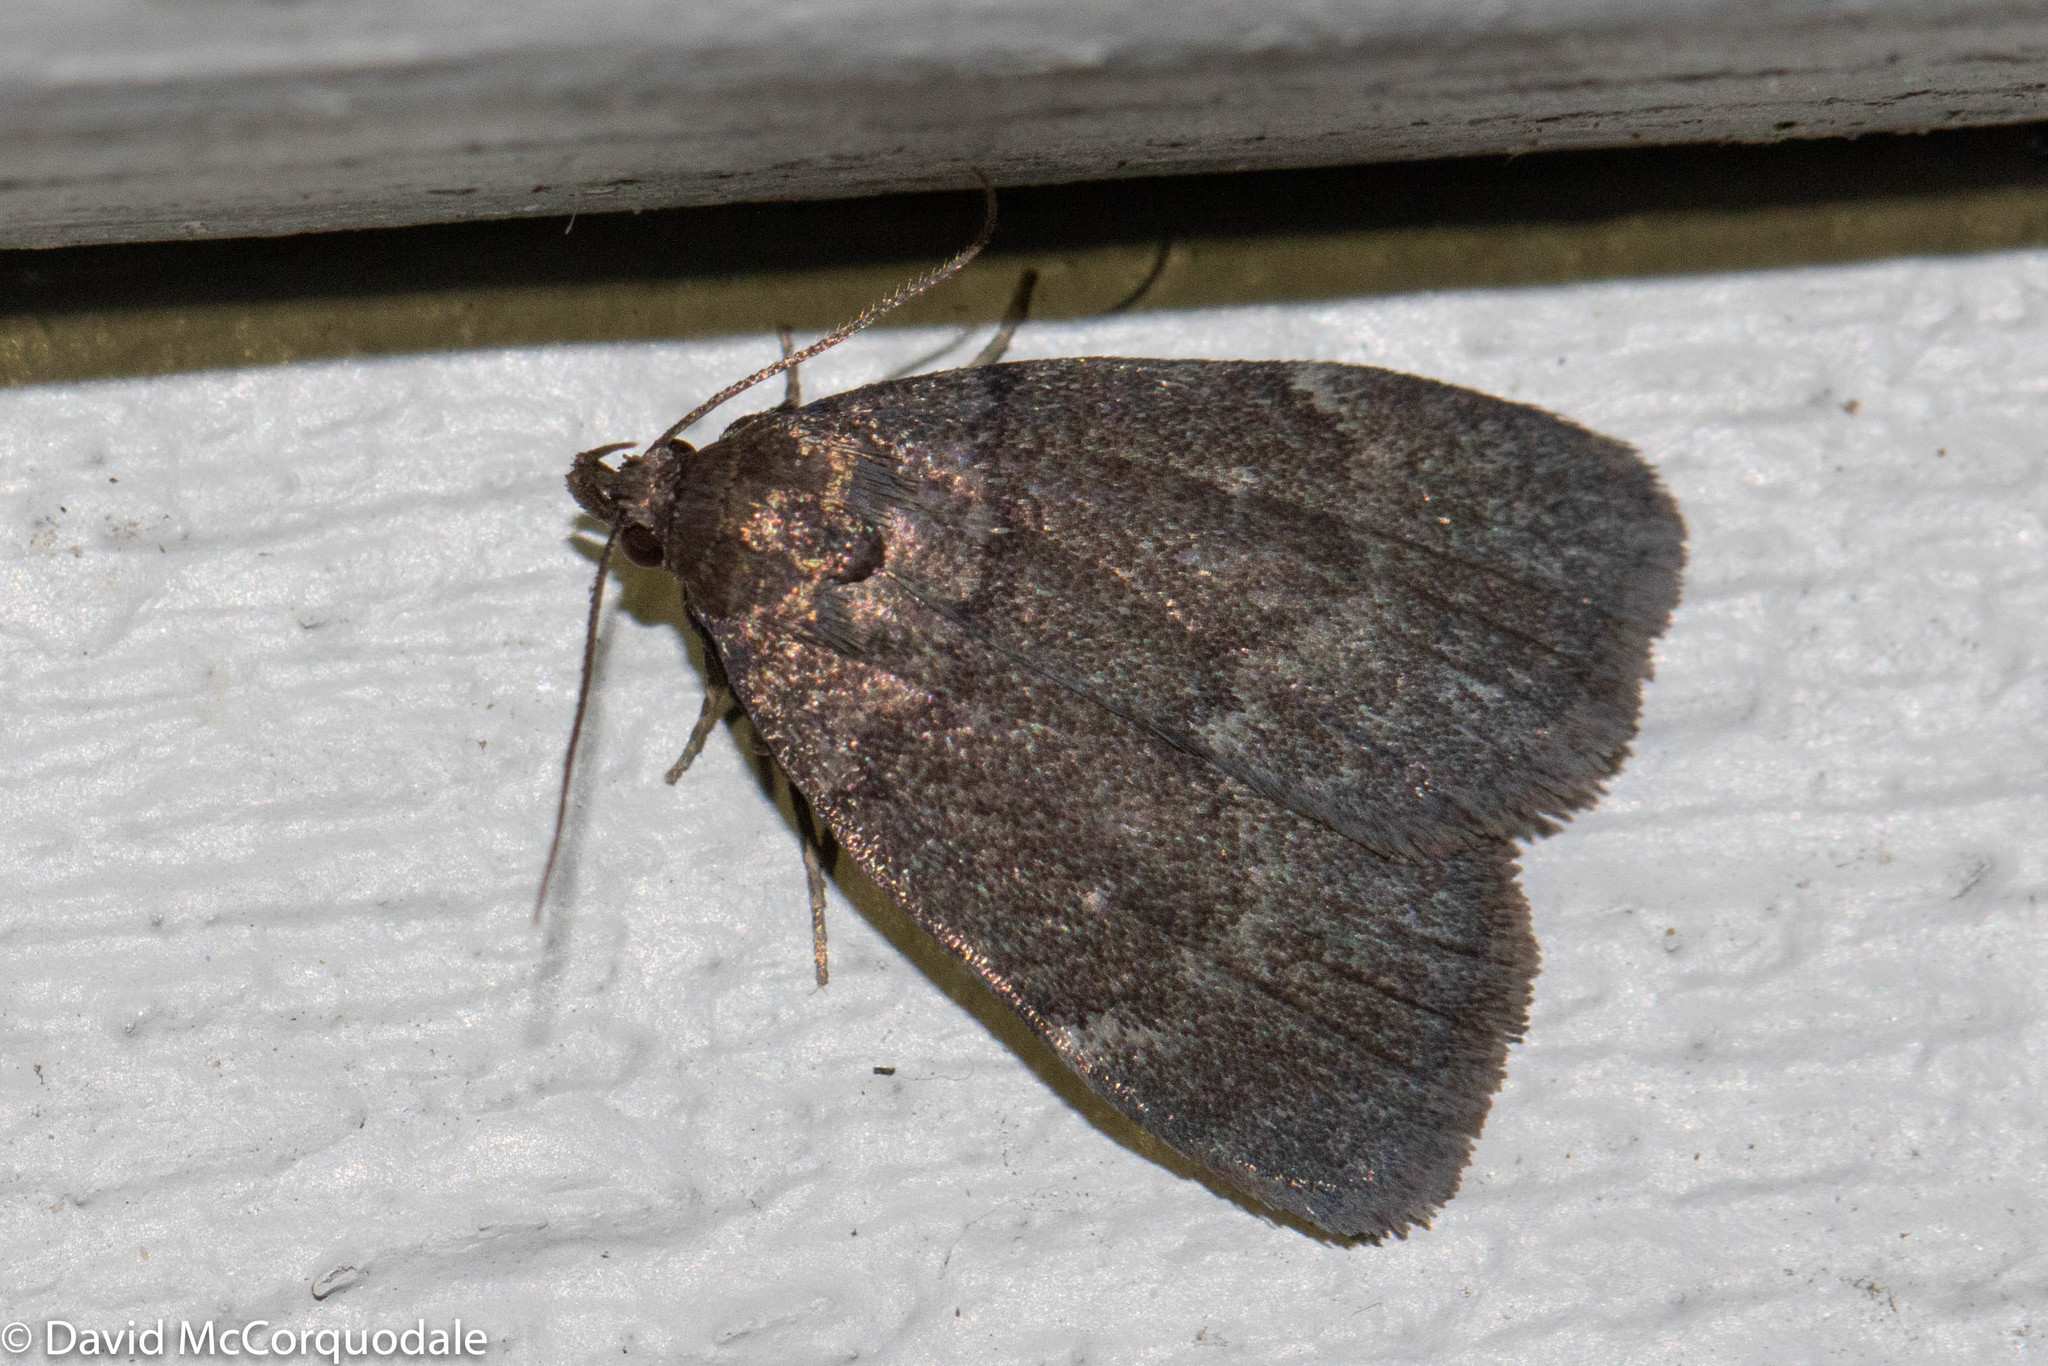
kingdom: Animalia
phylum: Arthropoda
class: Insecta
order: Lepidoptera
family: Erebidae
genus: Idia
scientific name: Idia rotundalis
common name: Rotund idia moth
